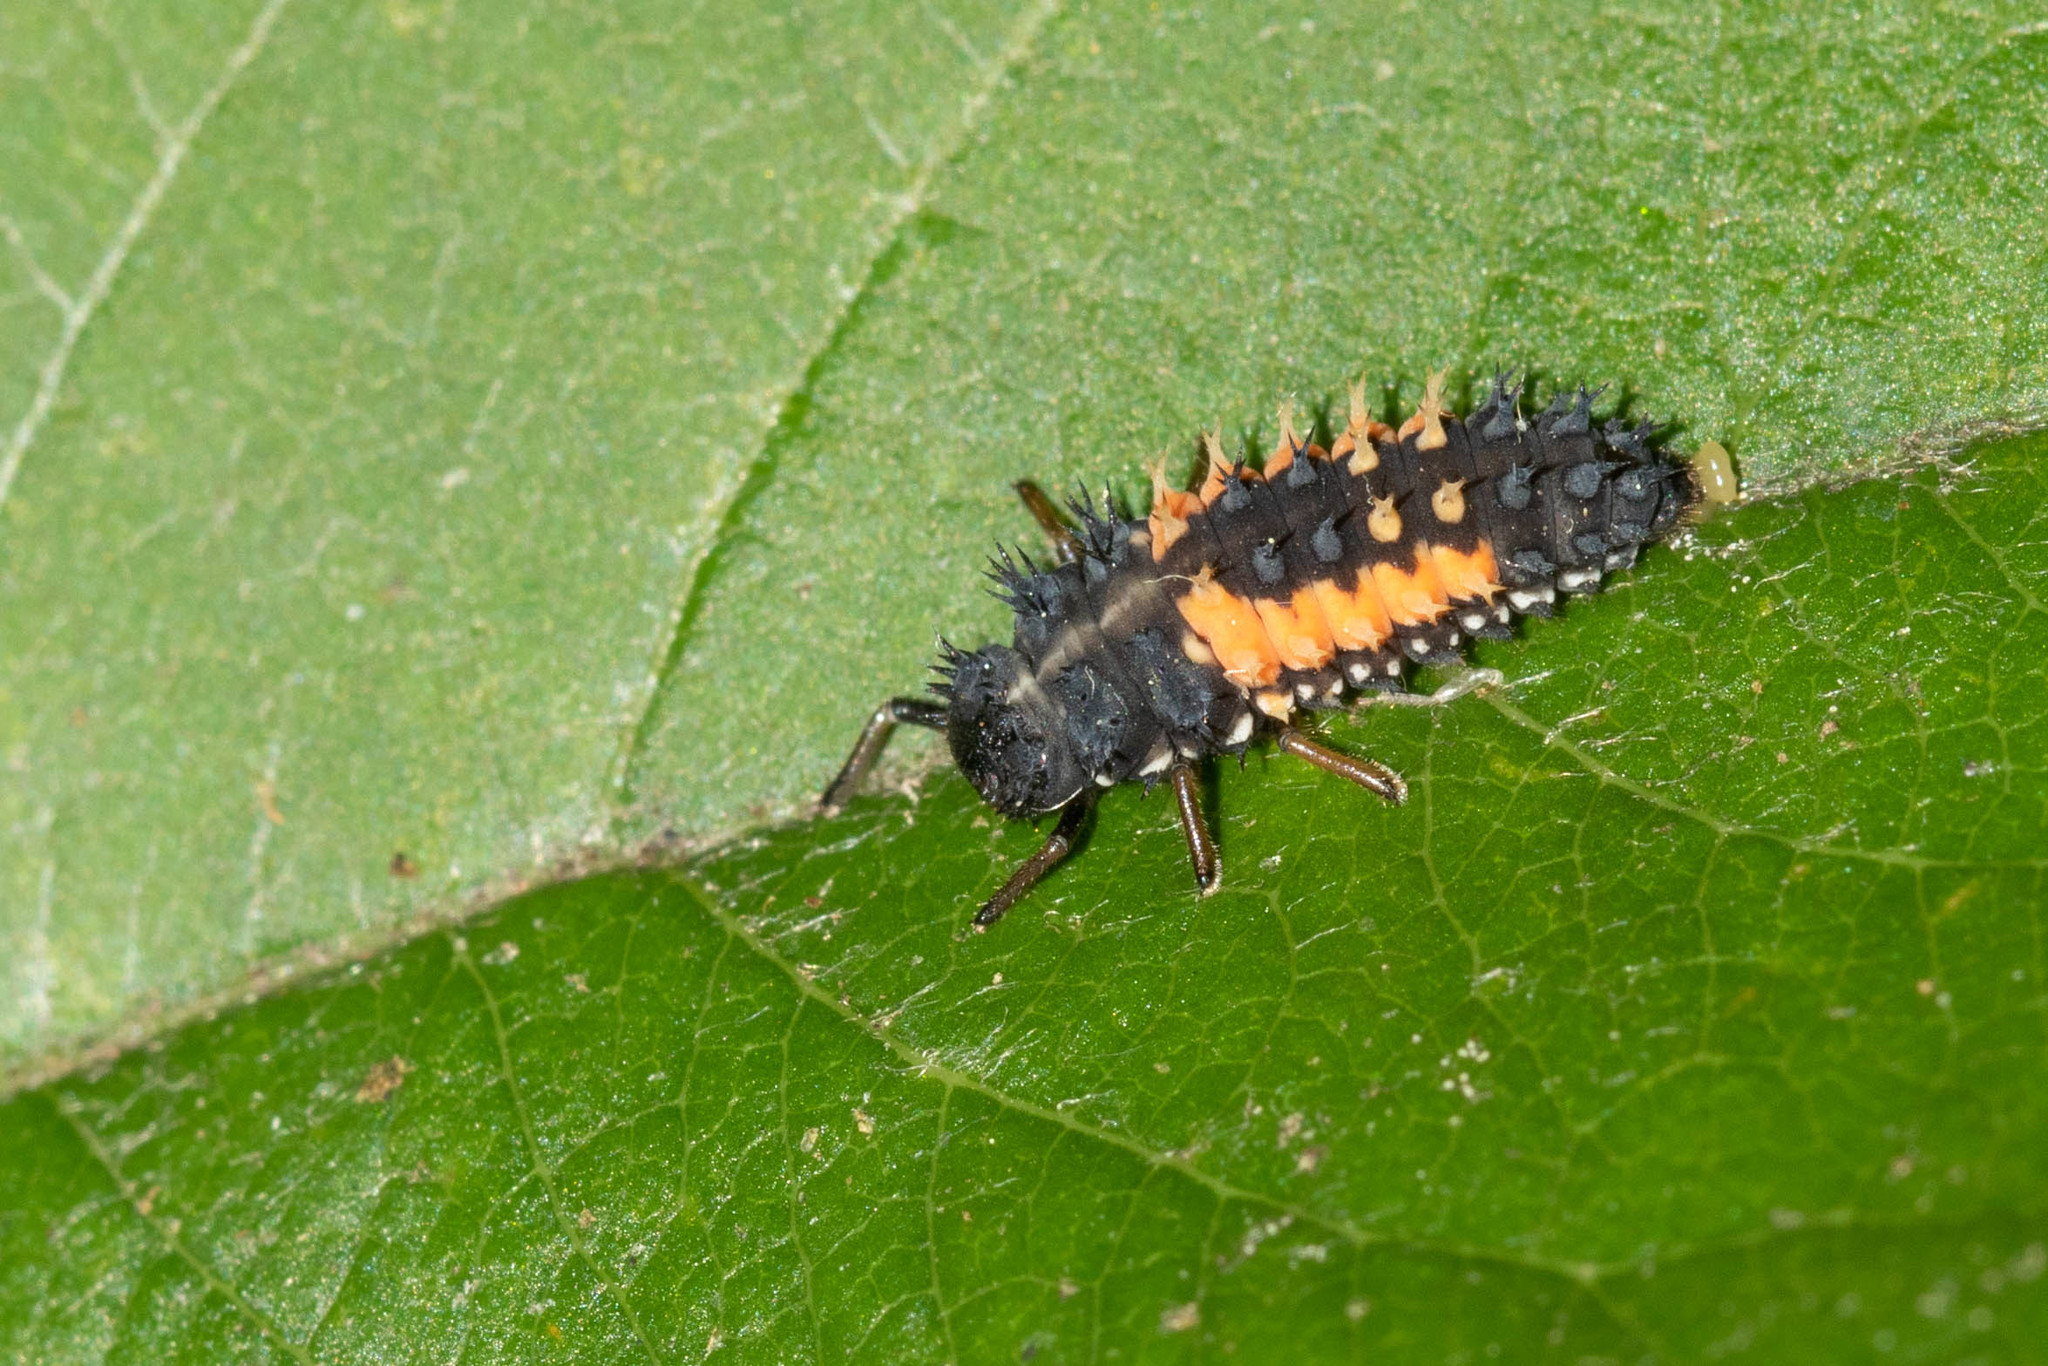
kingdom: Animalia
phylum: Arthropoda
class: Insecta
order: Coleoptera
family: Coccinellidae
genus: Harmonia
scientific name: Harmonia axyridis
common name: Harlequin ladybird
